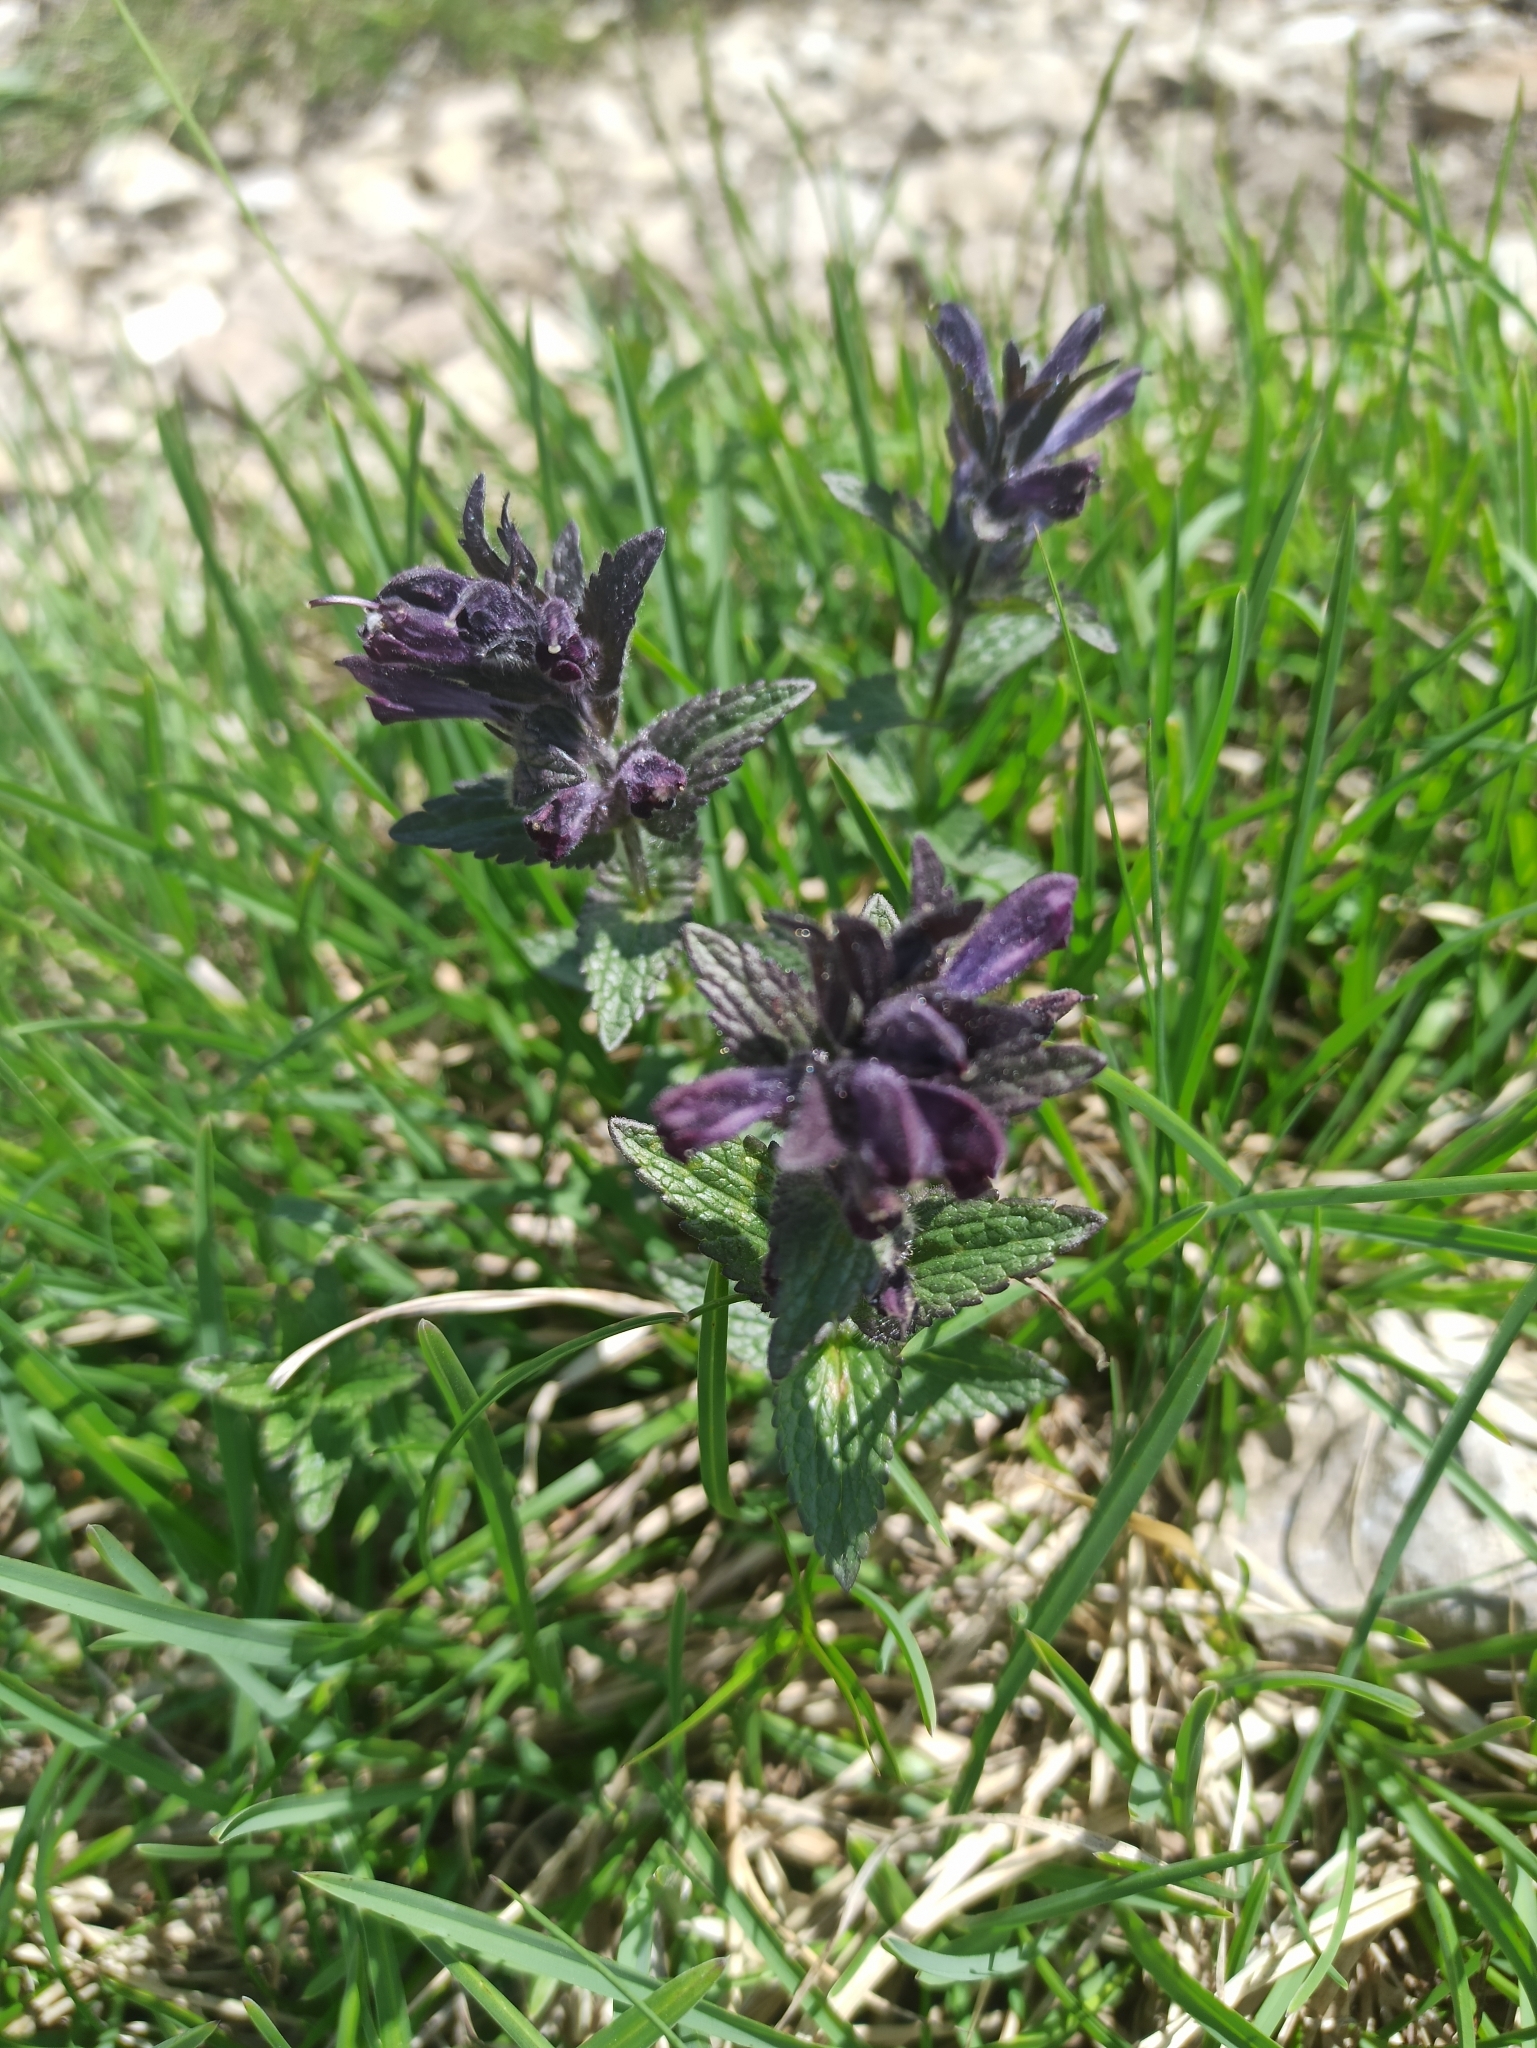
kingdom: Plantae
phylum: Tracheophyta
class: Magnoliopsida
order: Lamiales
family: Orobanchaceae
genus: Bartsia
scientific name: Bartsia alpina
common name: Alpine bartsia
